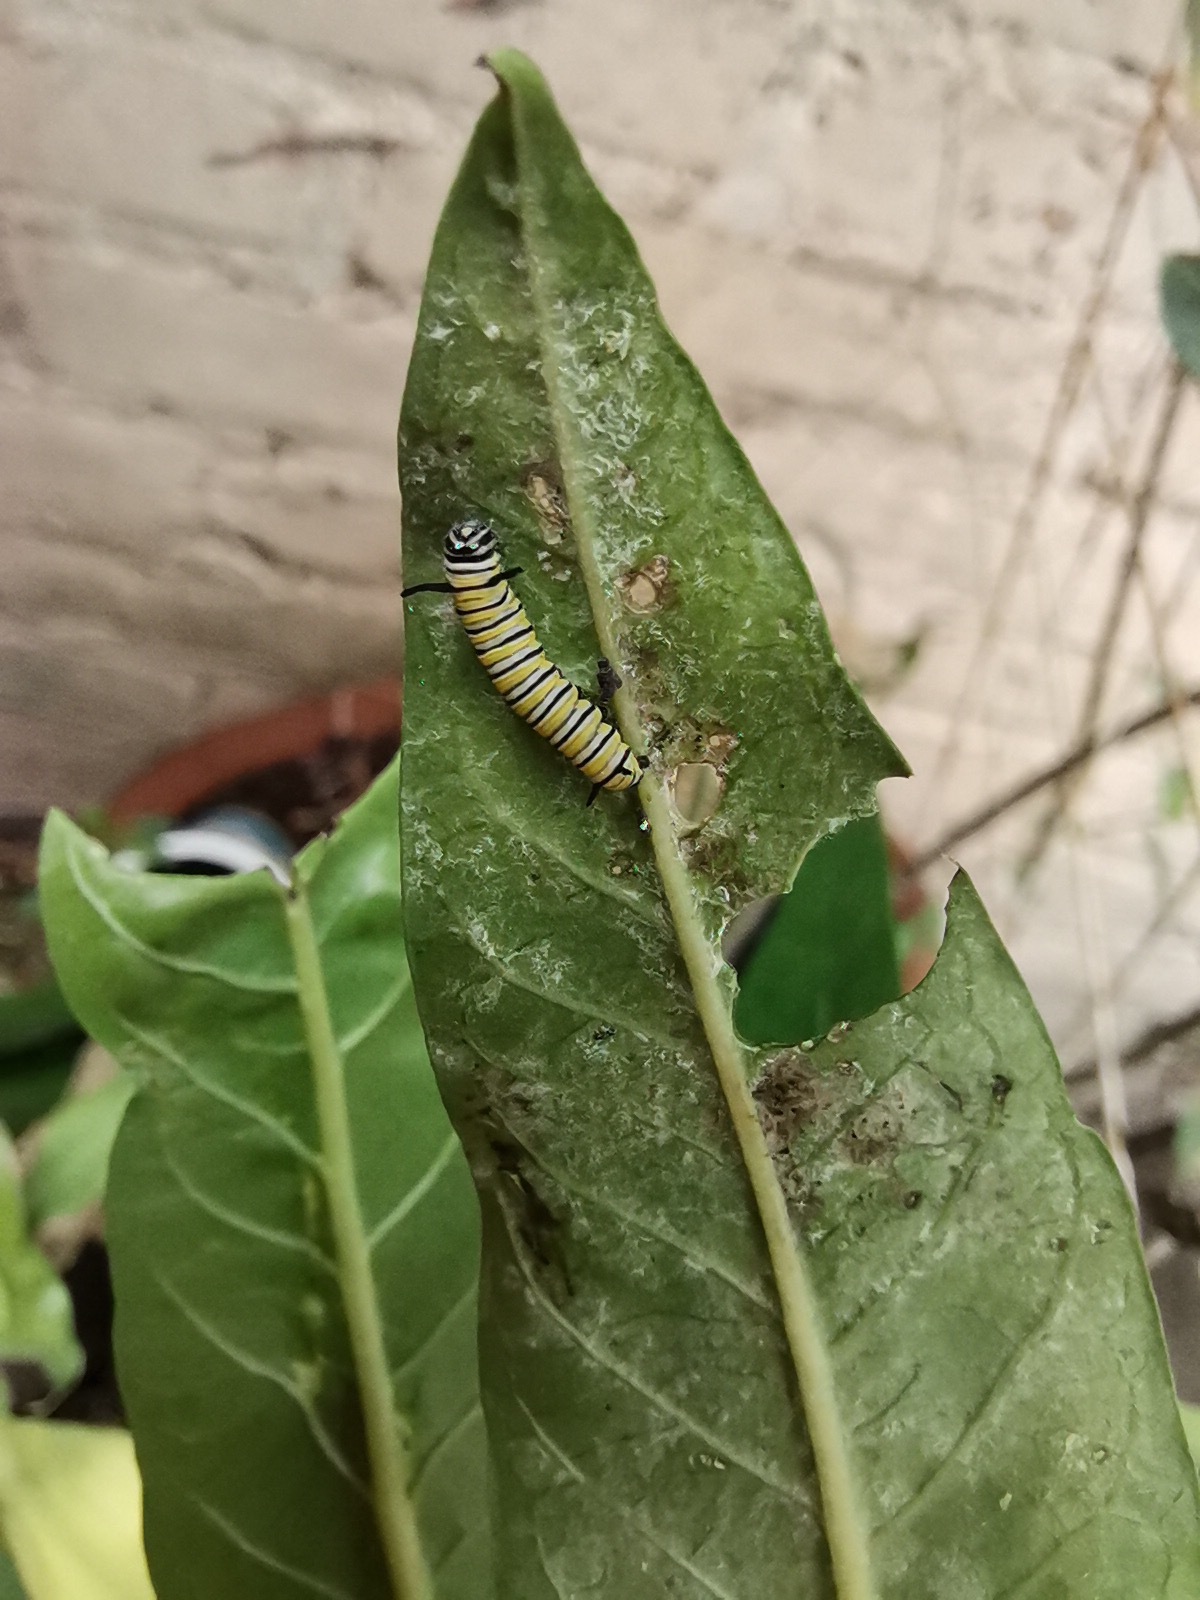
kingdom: Animalia
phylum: Arthropoda
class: Insecta
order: Lepidoptera
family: Nymphalidae
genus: Danaus
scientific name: Danaus plexippus
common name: Monarch
